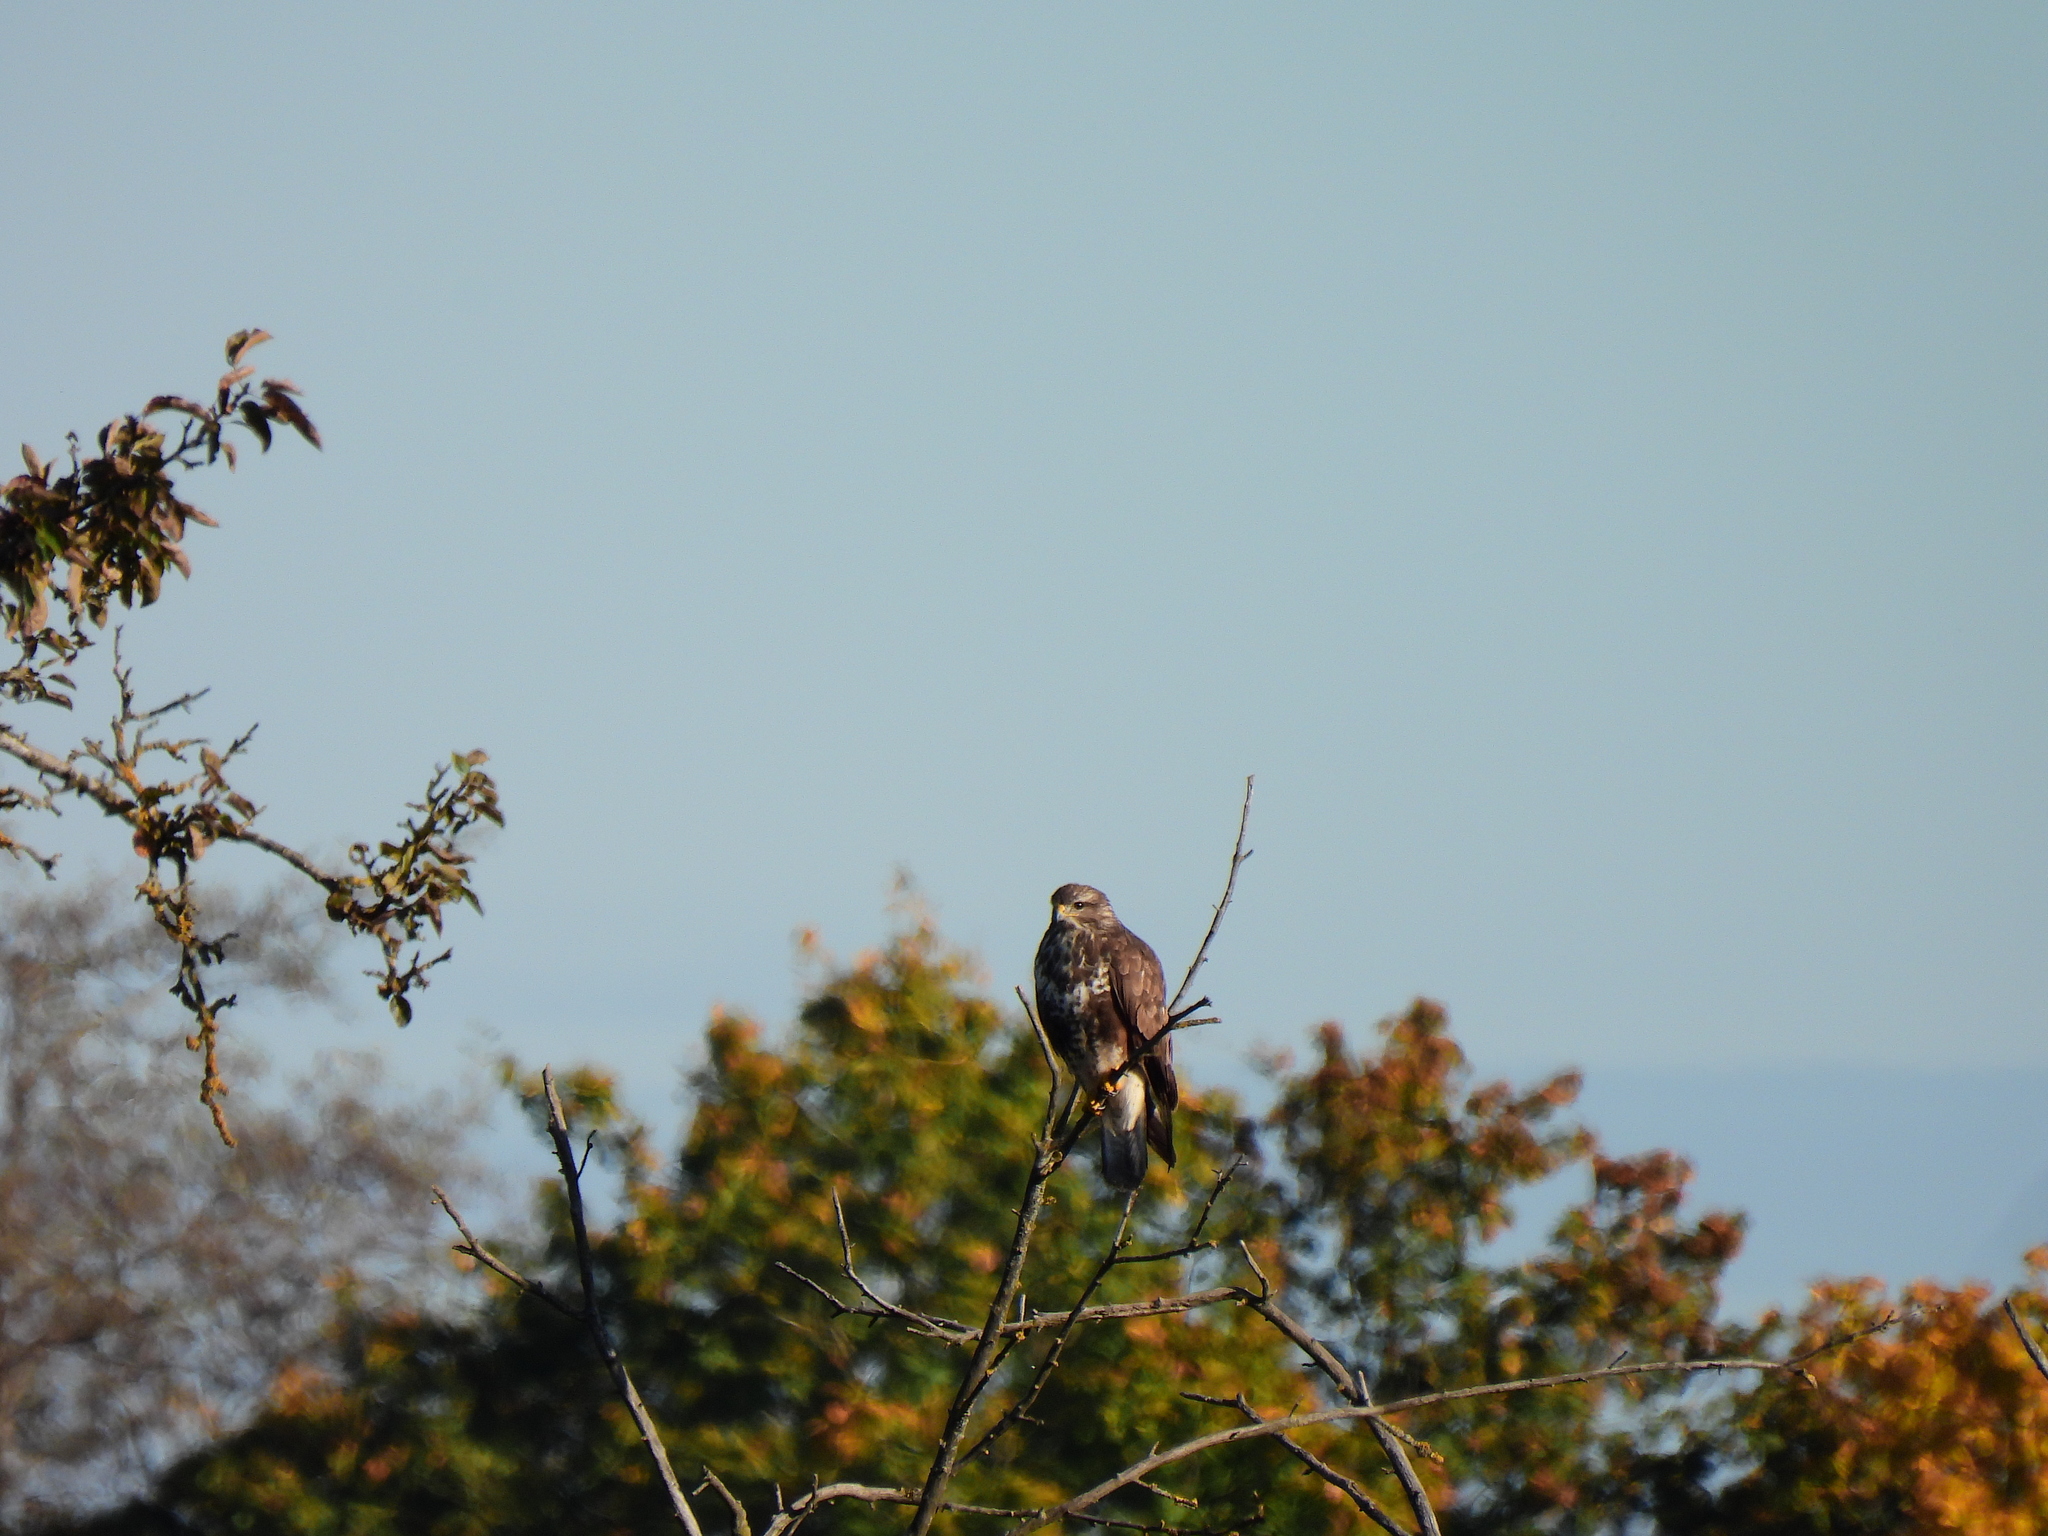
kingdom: Animalia
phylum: Chordata
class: Aves
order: Accipitriformes
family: Accipitridae
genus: Buteo
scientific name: Buteo buteo
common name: Common buzzard
